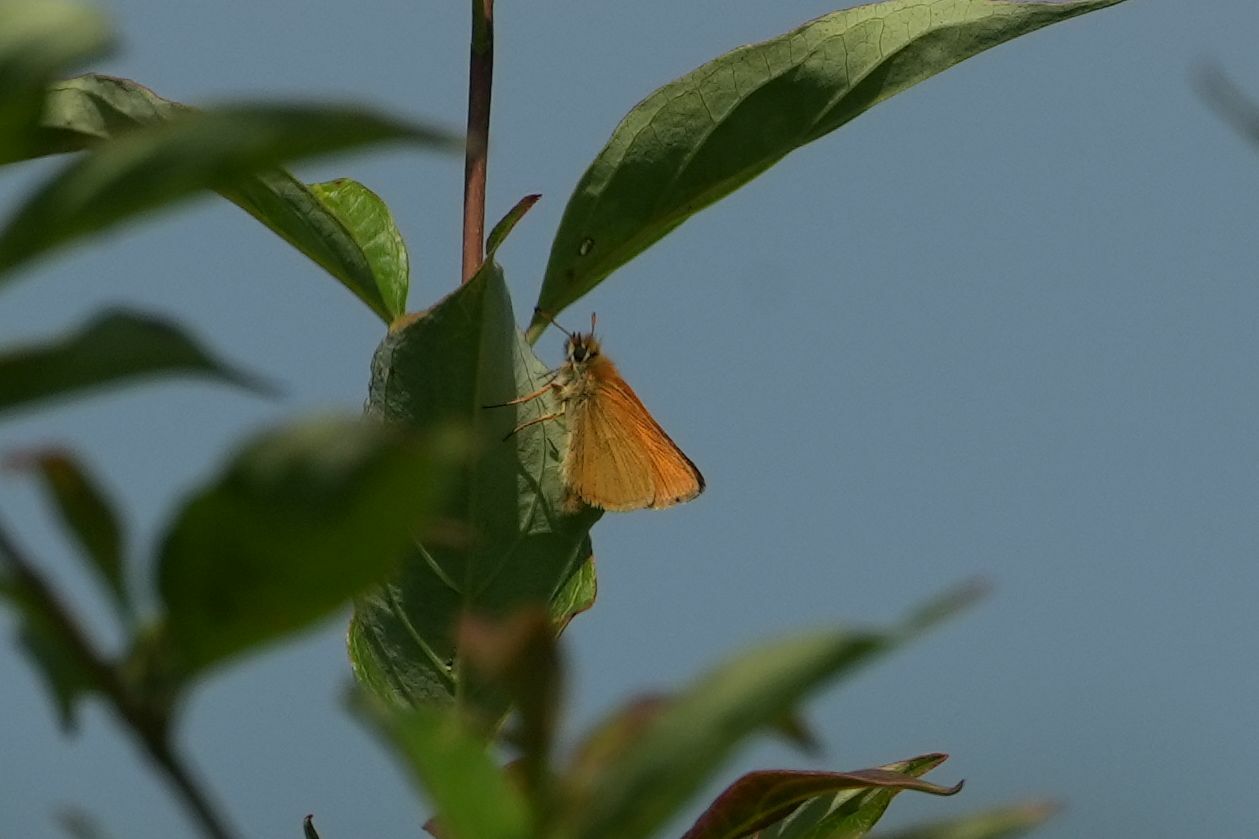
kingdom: Animalia
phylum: Arthropoda
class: Insecta
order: Lepidoptera
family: Hesperiidae
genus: Thymelicus
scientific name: Thymelicus lineola
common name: Essex skipper
